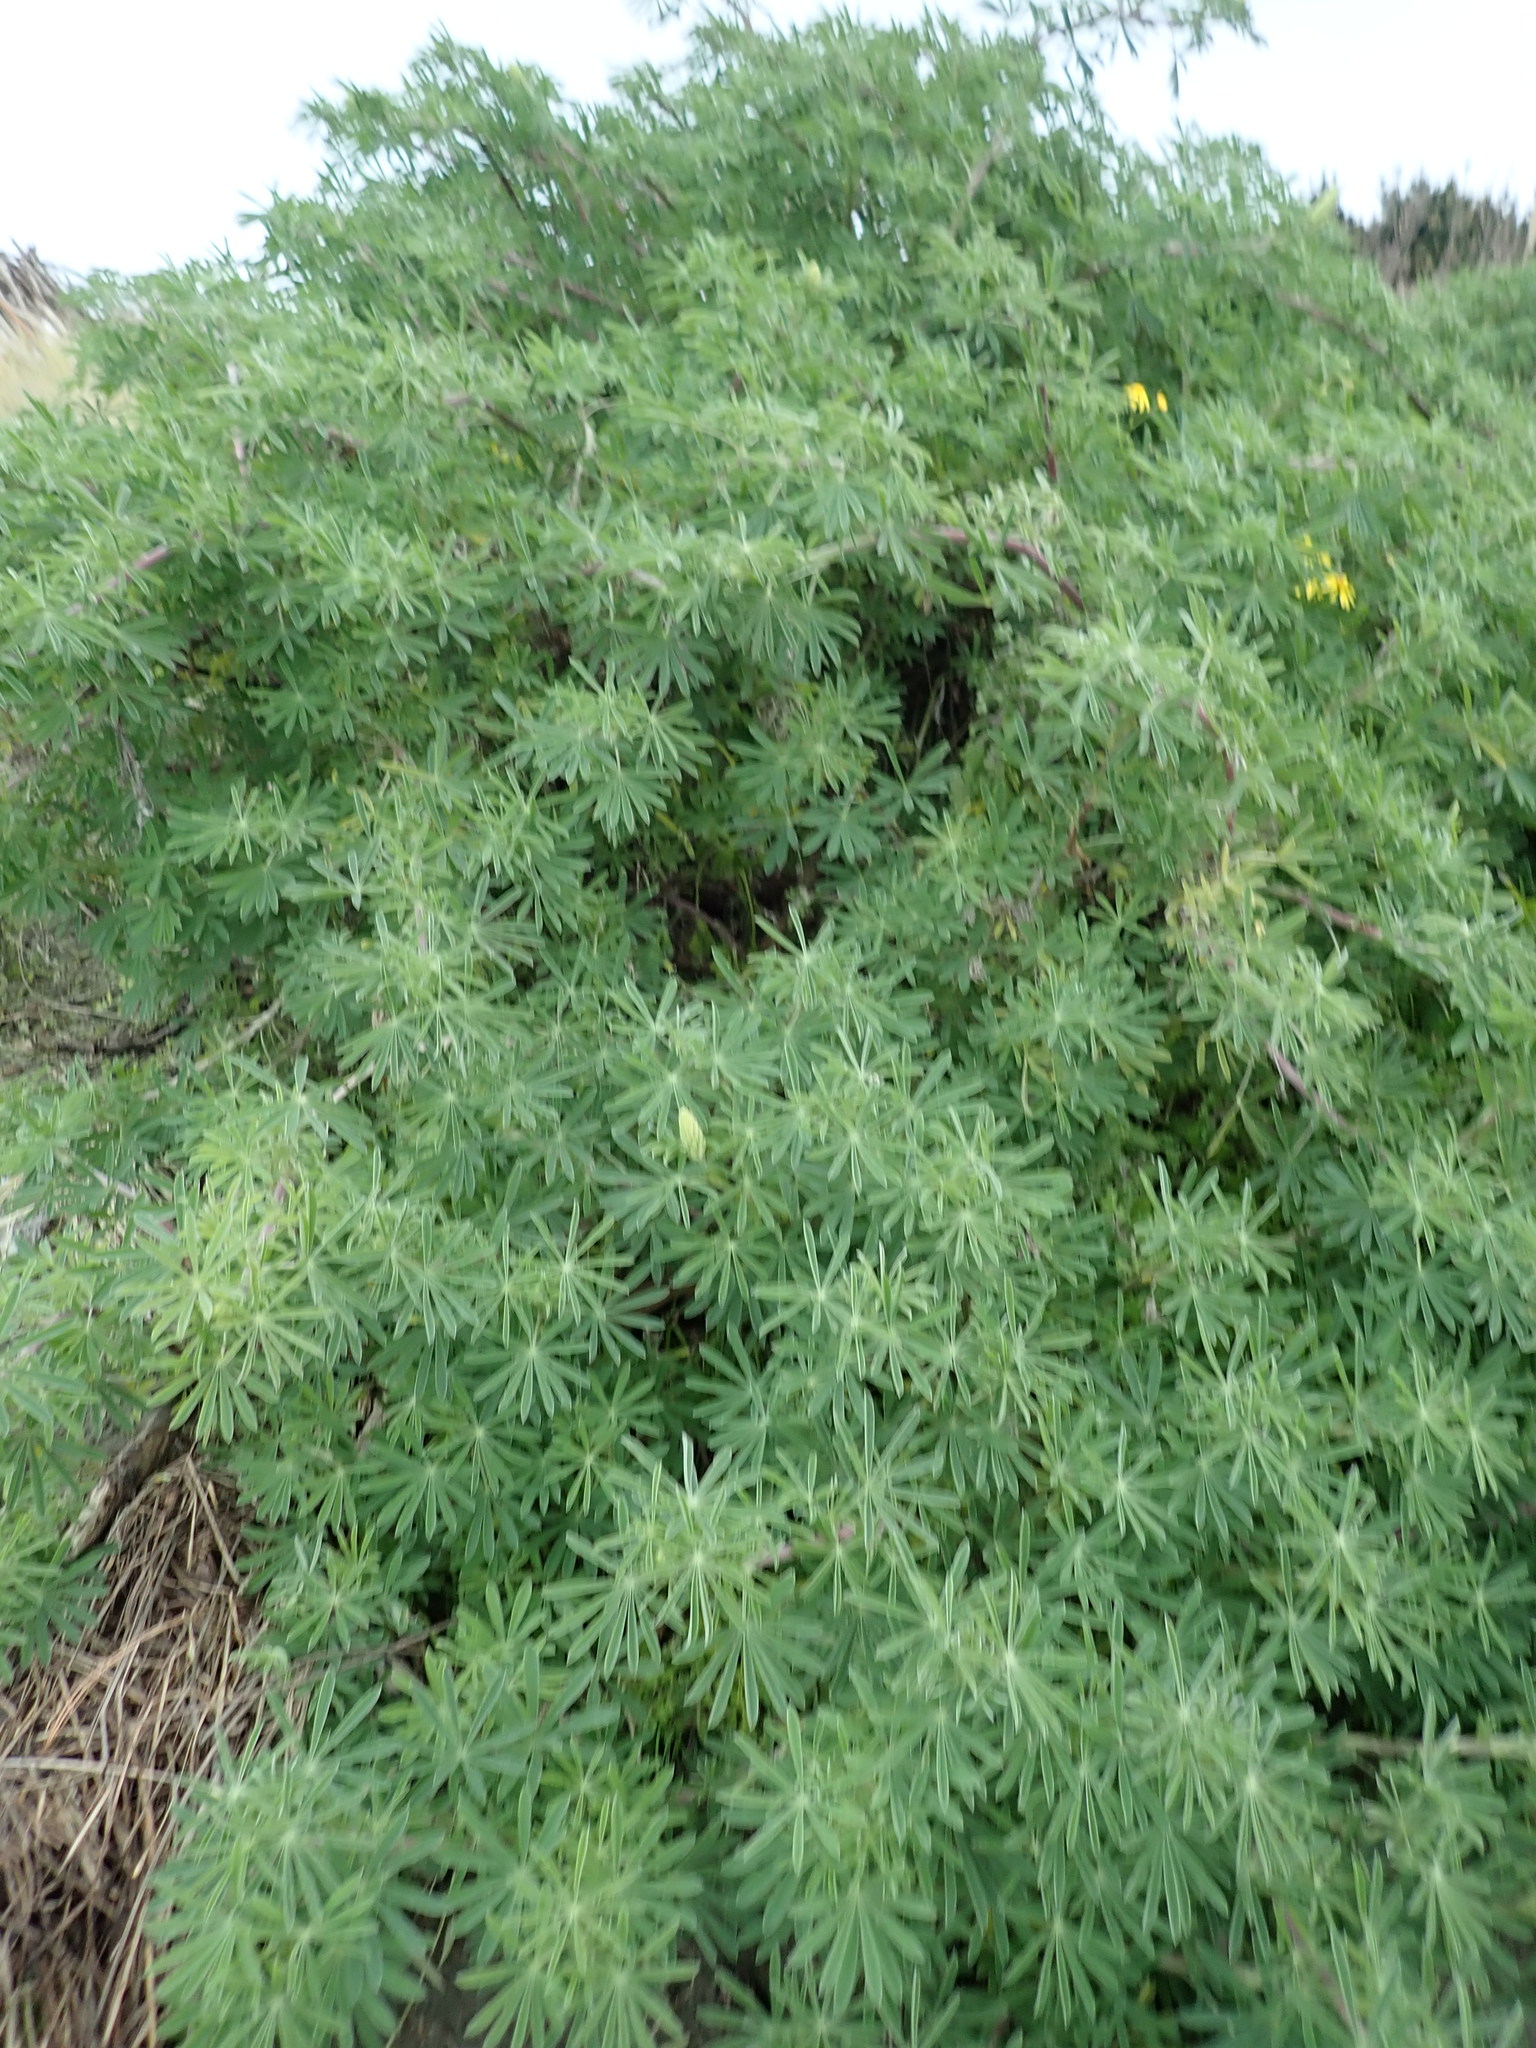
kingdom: Plantae
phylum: Tracheophyta
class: Magnoliopsida
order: Fabales
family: Fabaceae
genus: Lupinus
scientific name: Lupinus arboreus
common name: Yellow bush lupine
